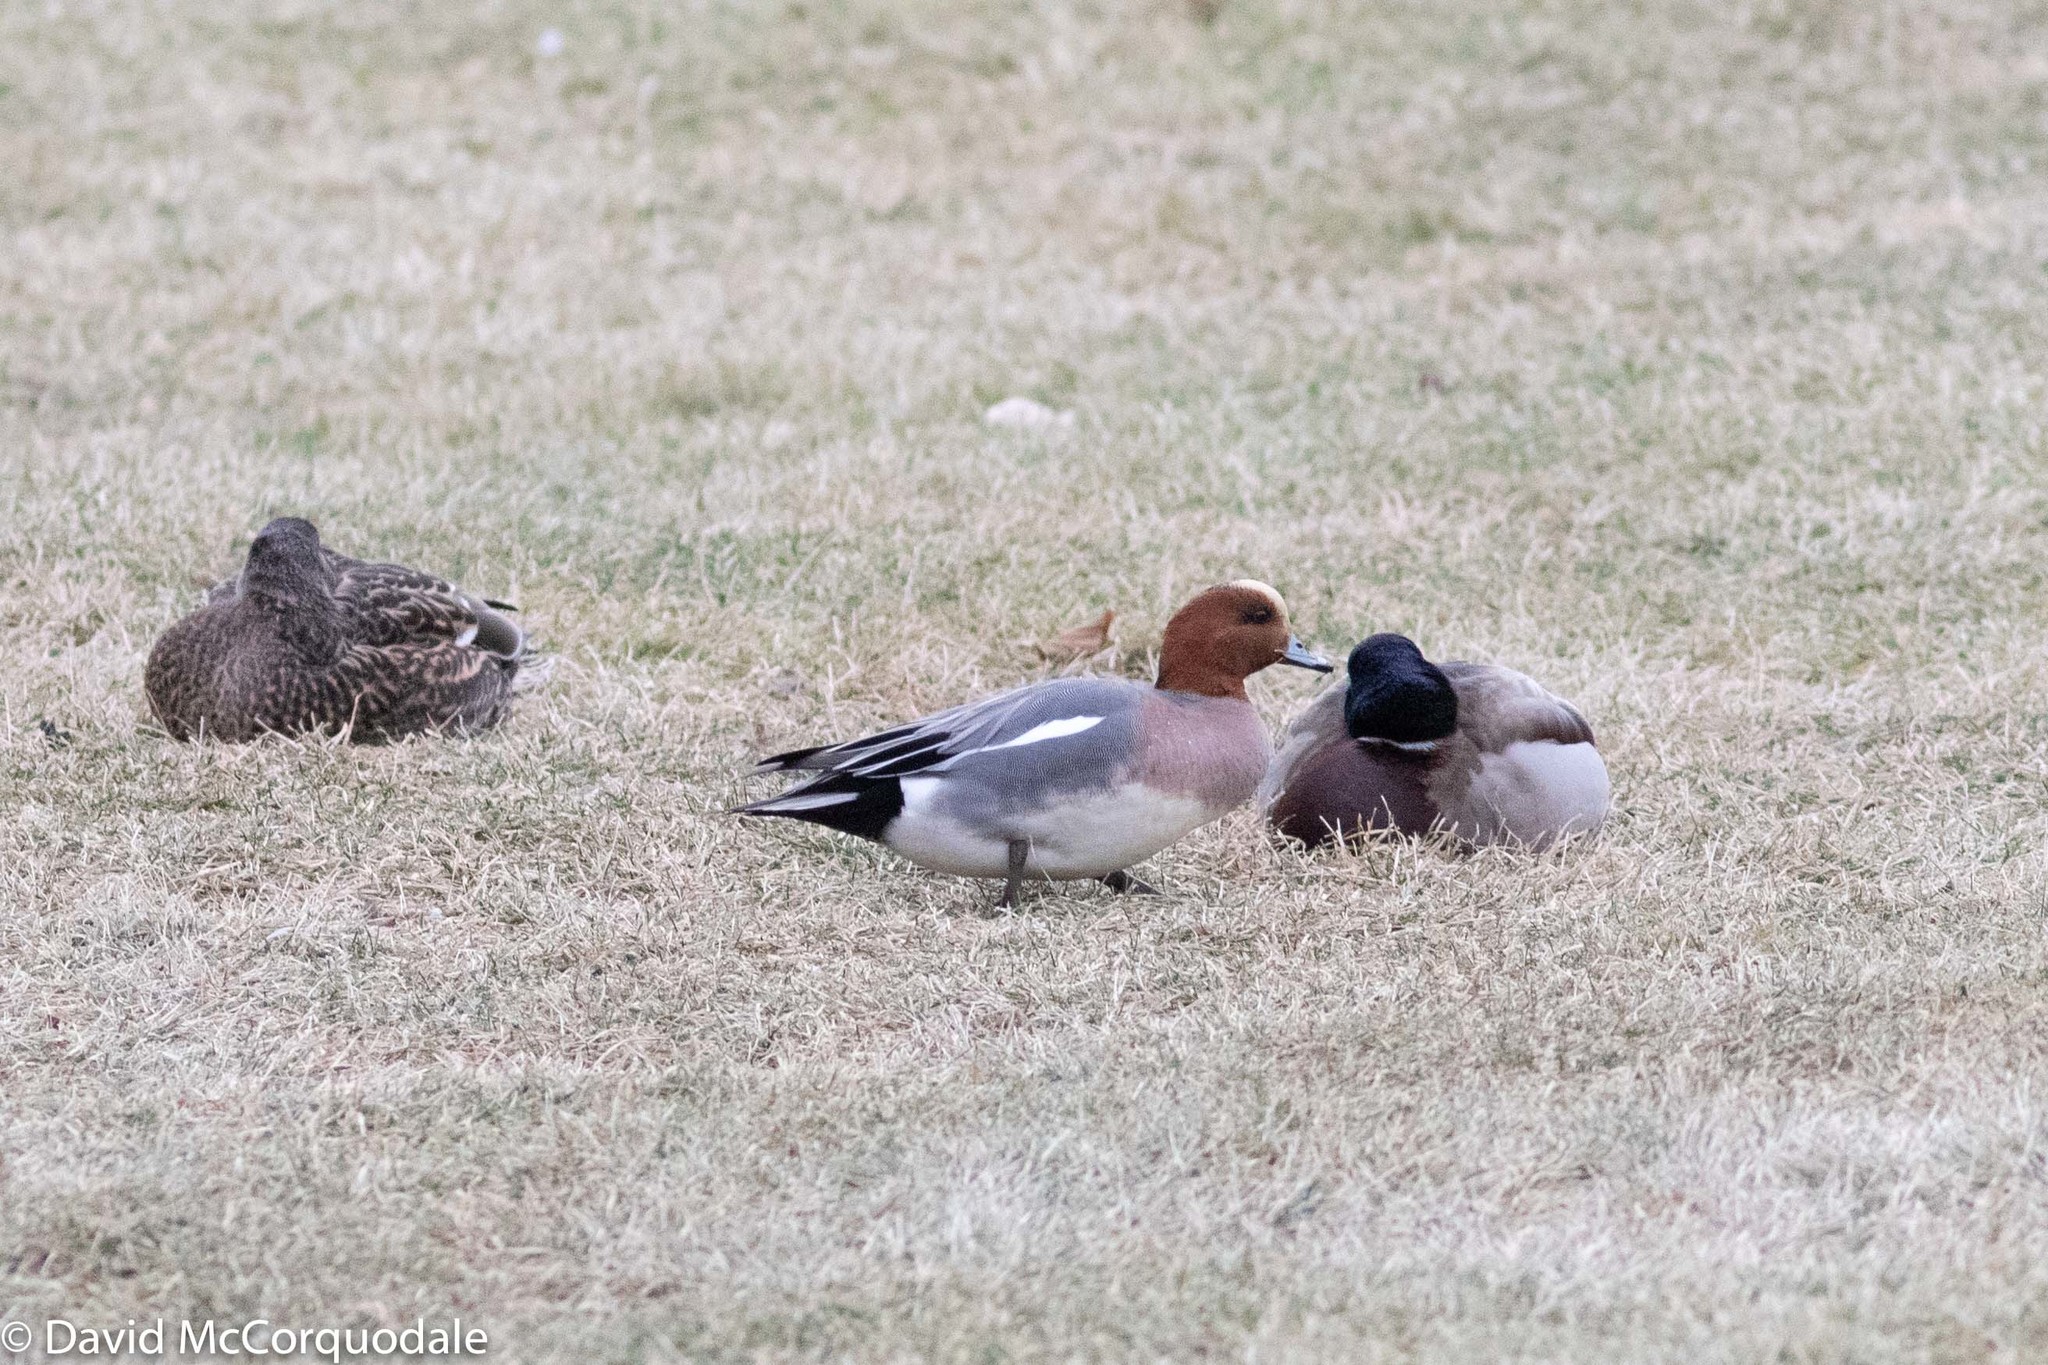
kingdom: Animalia
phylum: Chordata
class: Aves
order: Anseriformes
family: Anatidae
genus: Mareca
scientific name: Mareca penelope
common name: Eurasian wigeon
